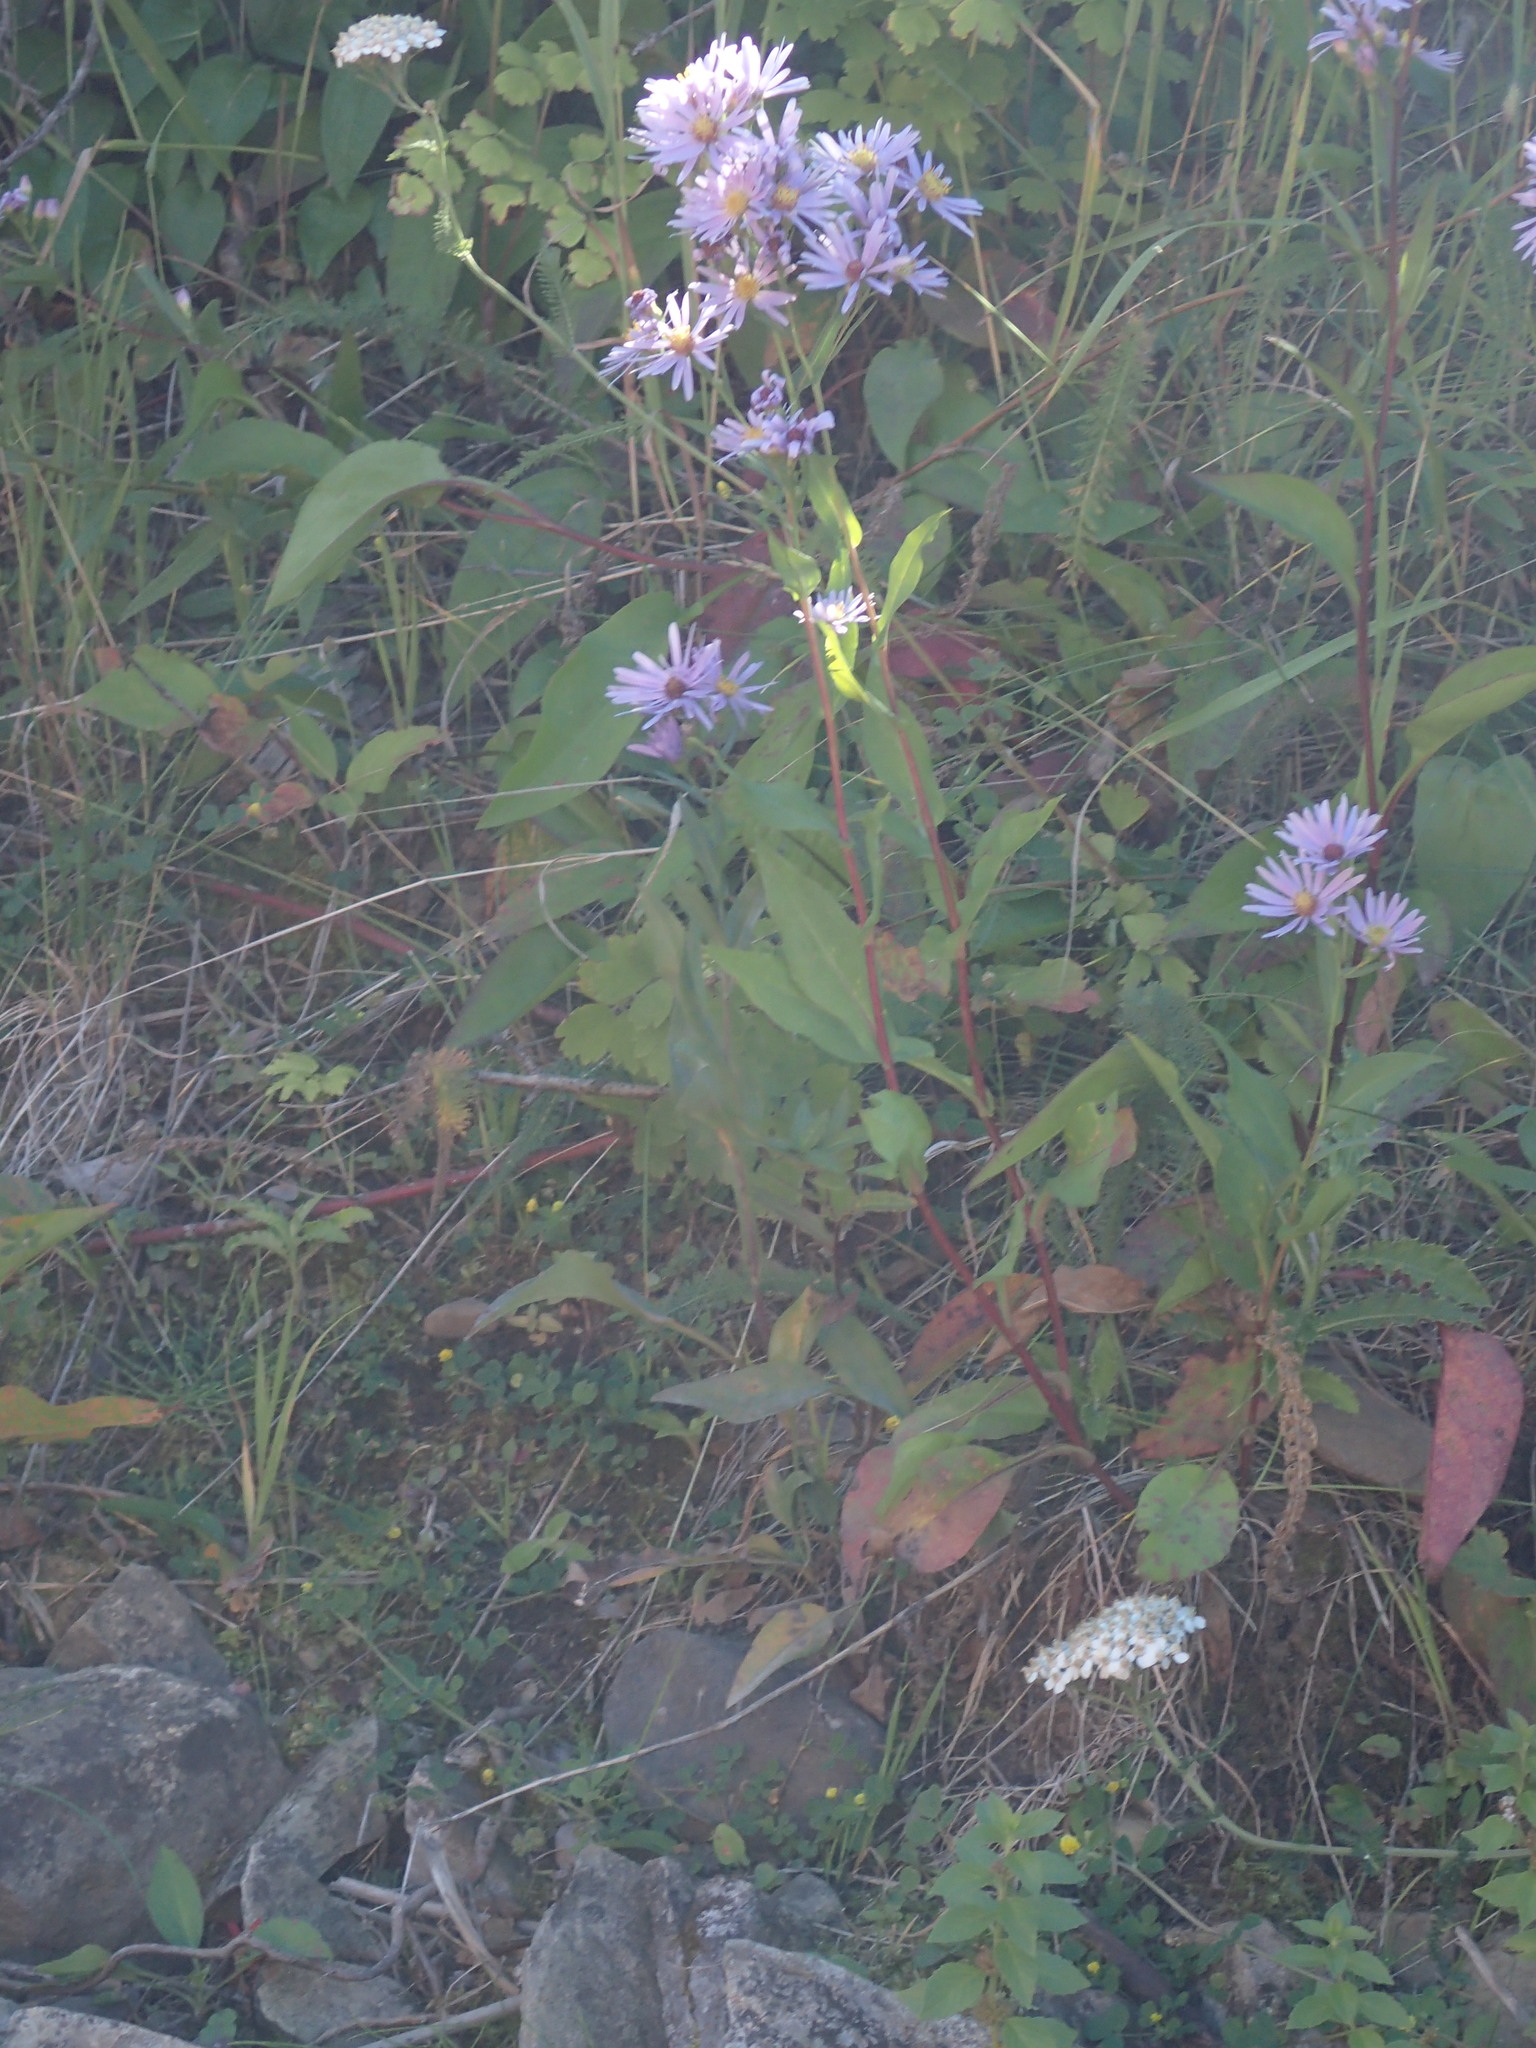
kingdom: Plantae
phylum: Tracheophyta
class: Magnoliopsida
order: Asterales
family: Asteraceae
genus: Symphyotrichum
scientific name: Symphyotrichum laeve
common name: Glaucous aster
